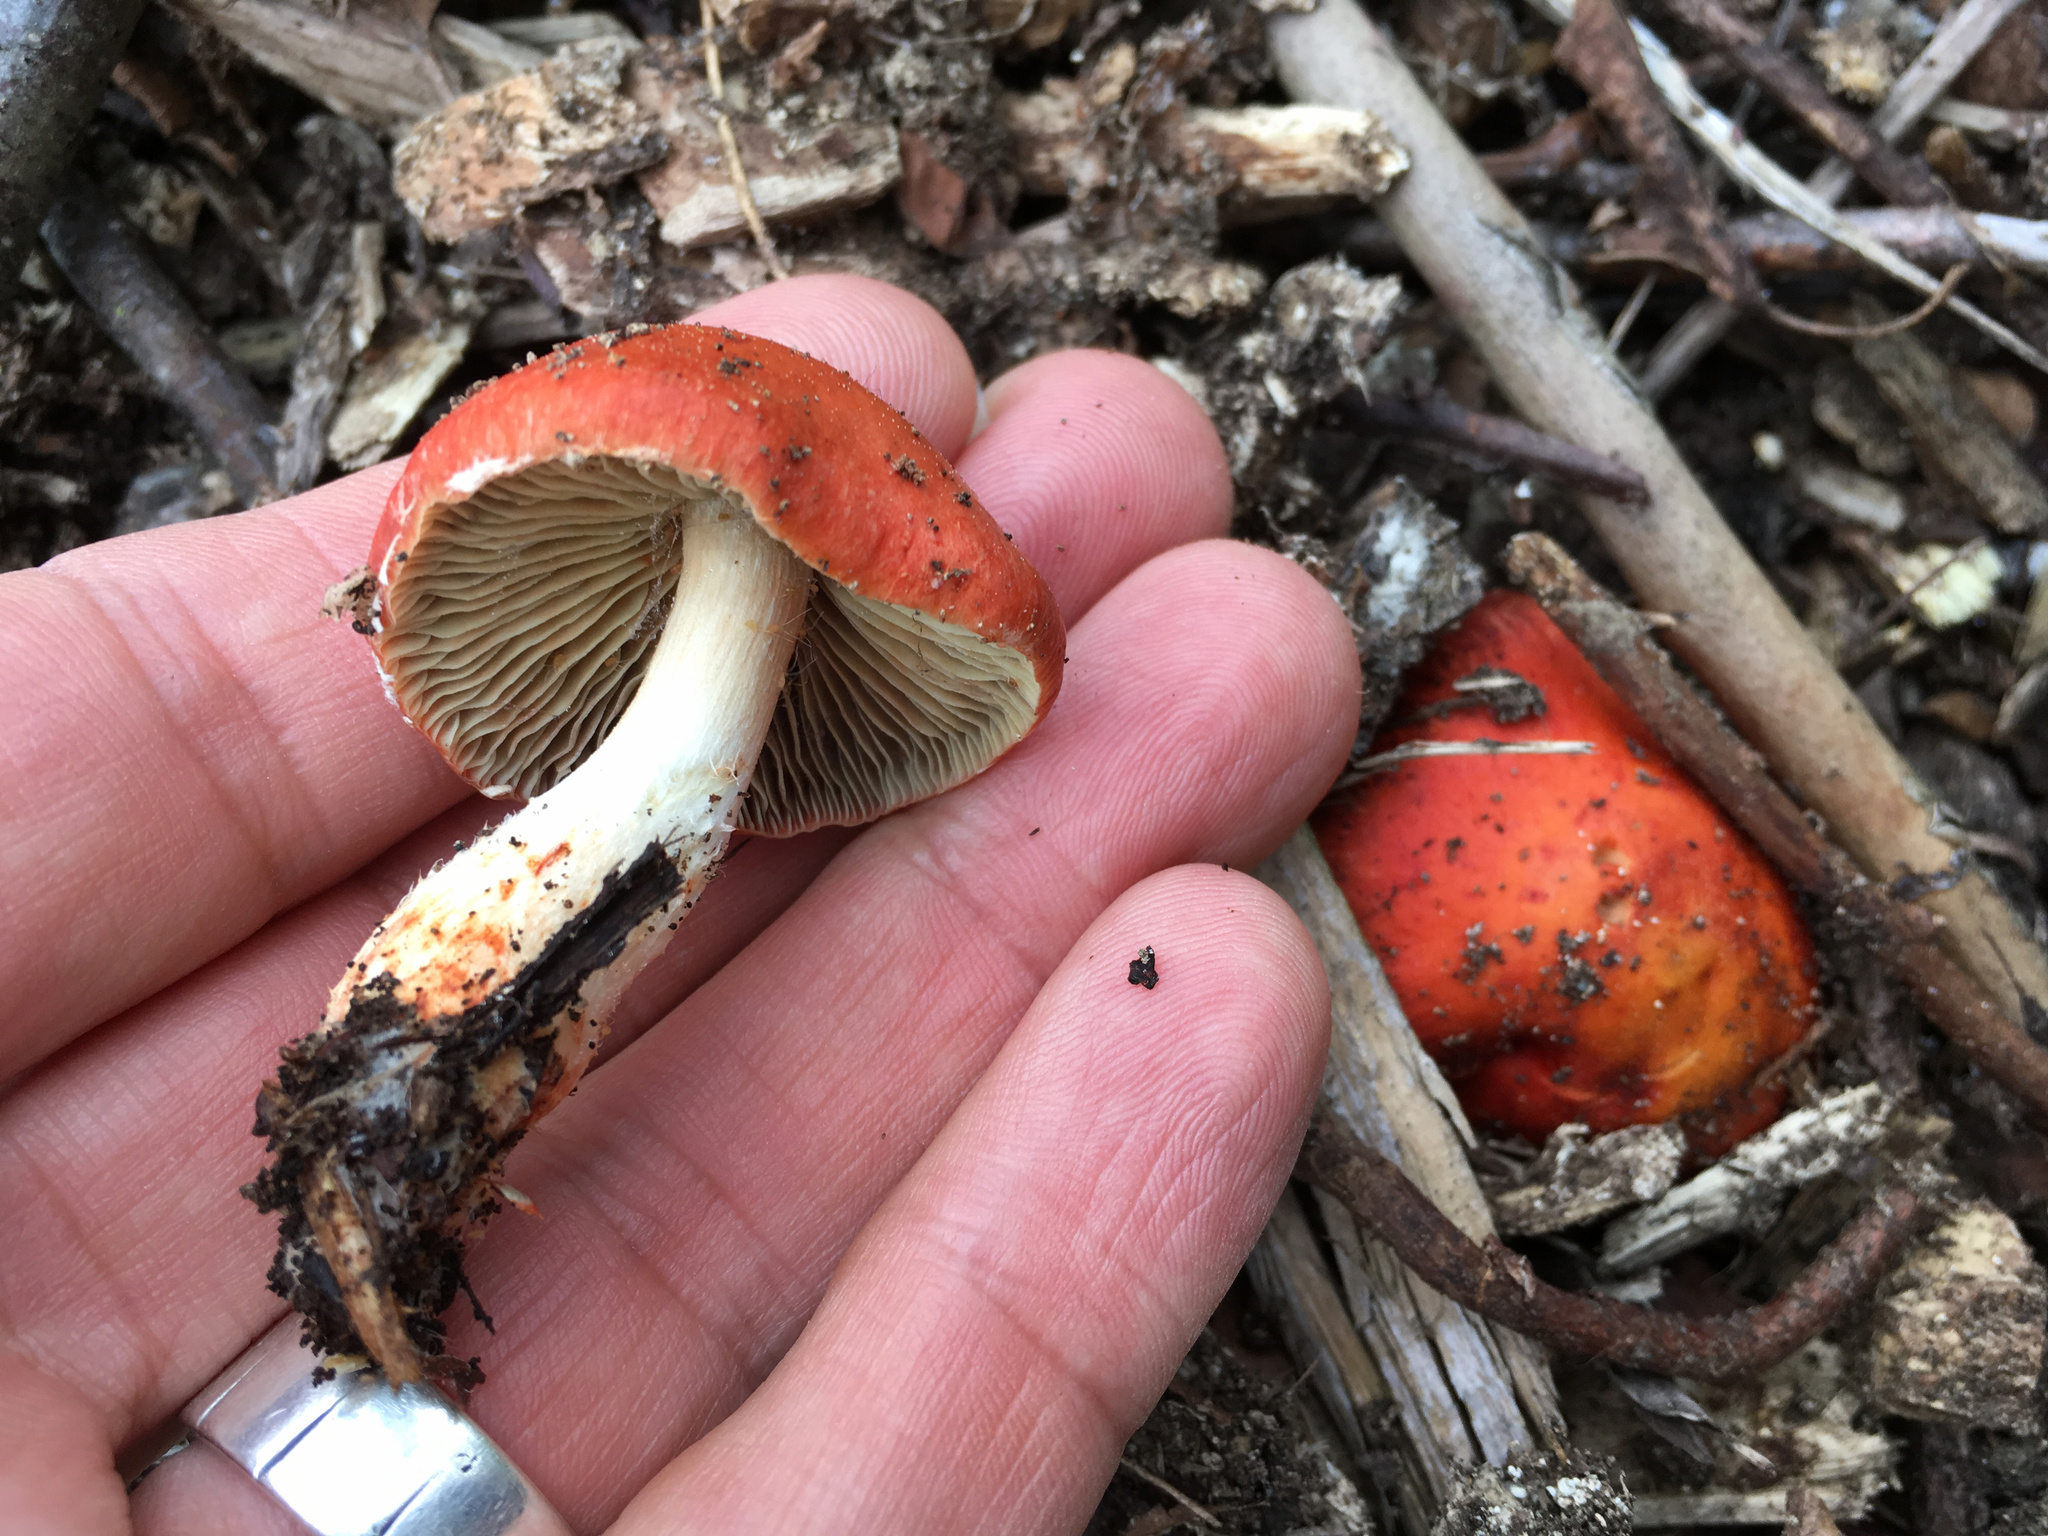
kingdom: Fungi
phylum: Basidiomycota
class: Agaricomycetes
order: Agaricales
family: Strophariaceae
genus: Leratiomyces
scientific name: Leratiomyces ceres
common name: Redlead roundhead
